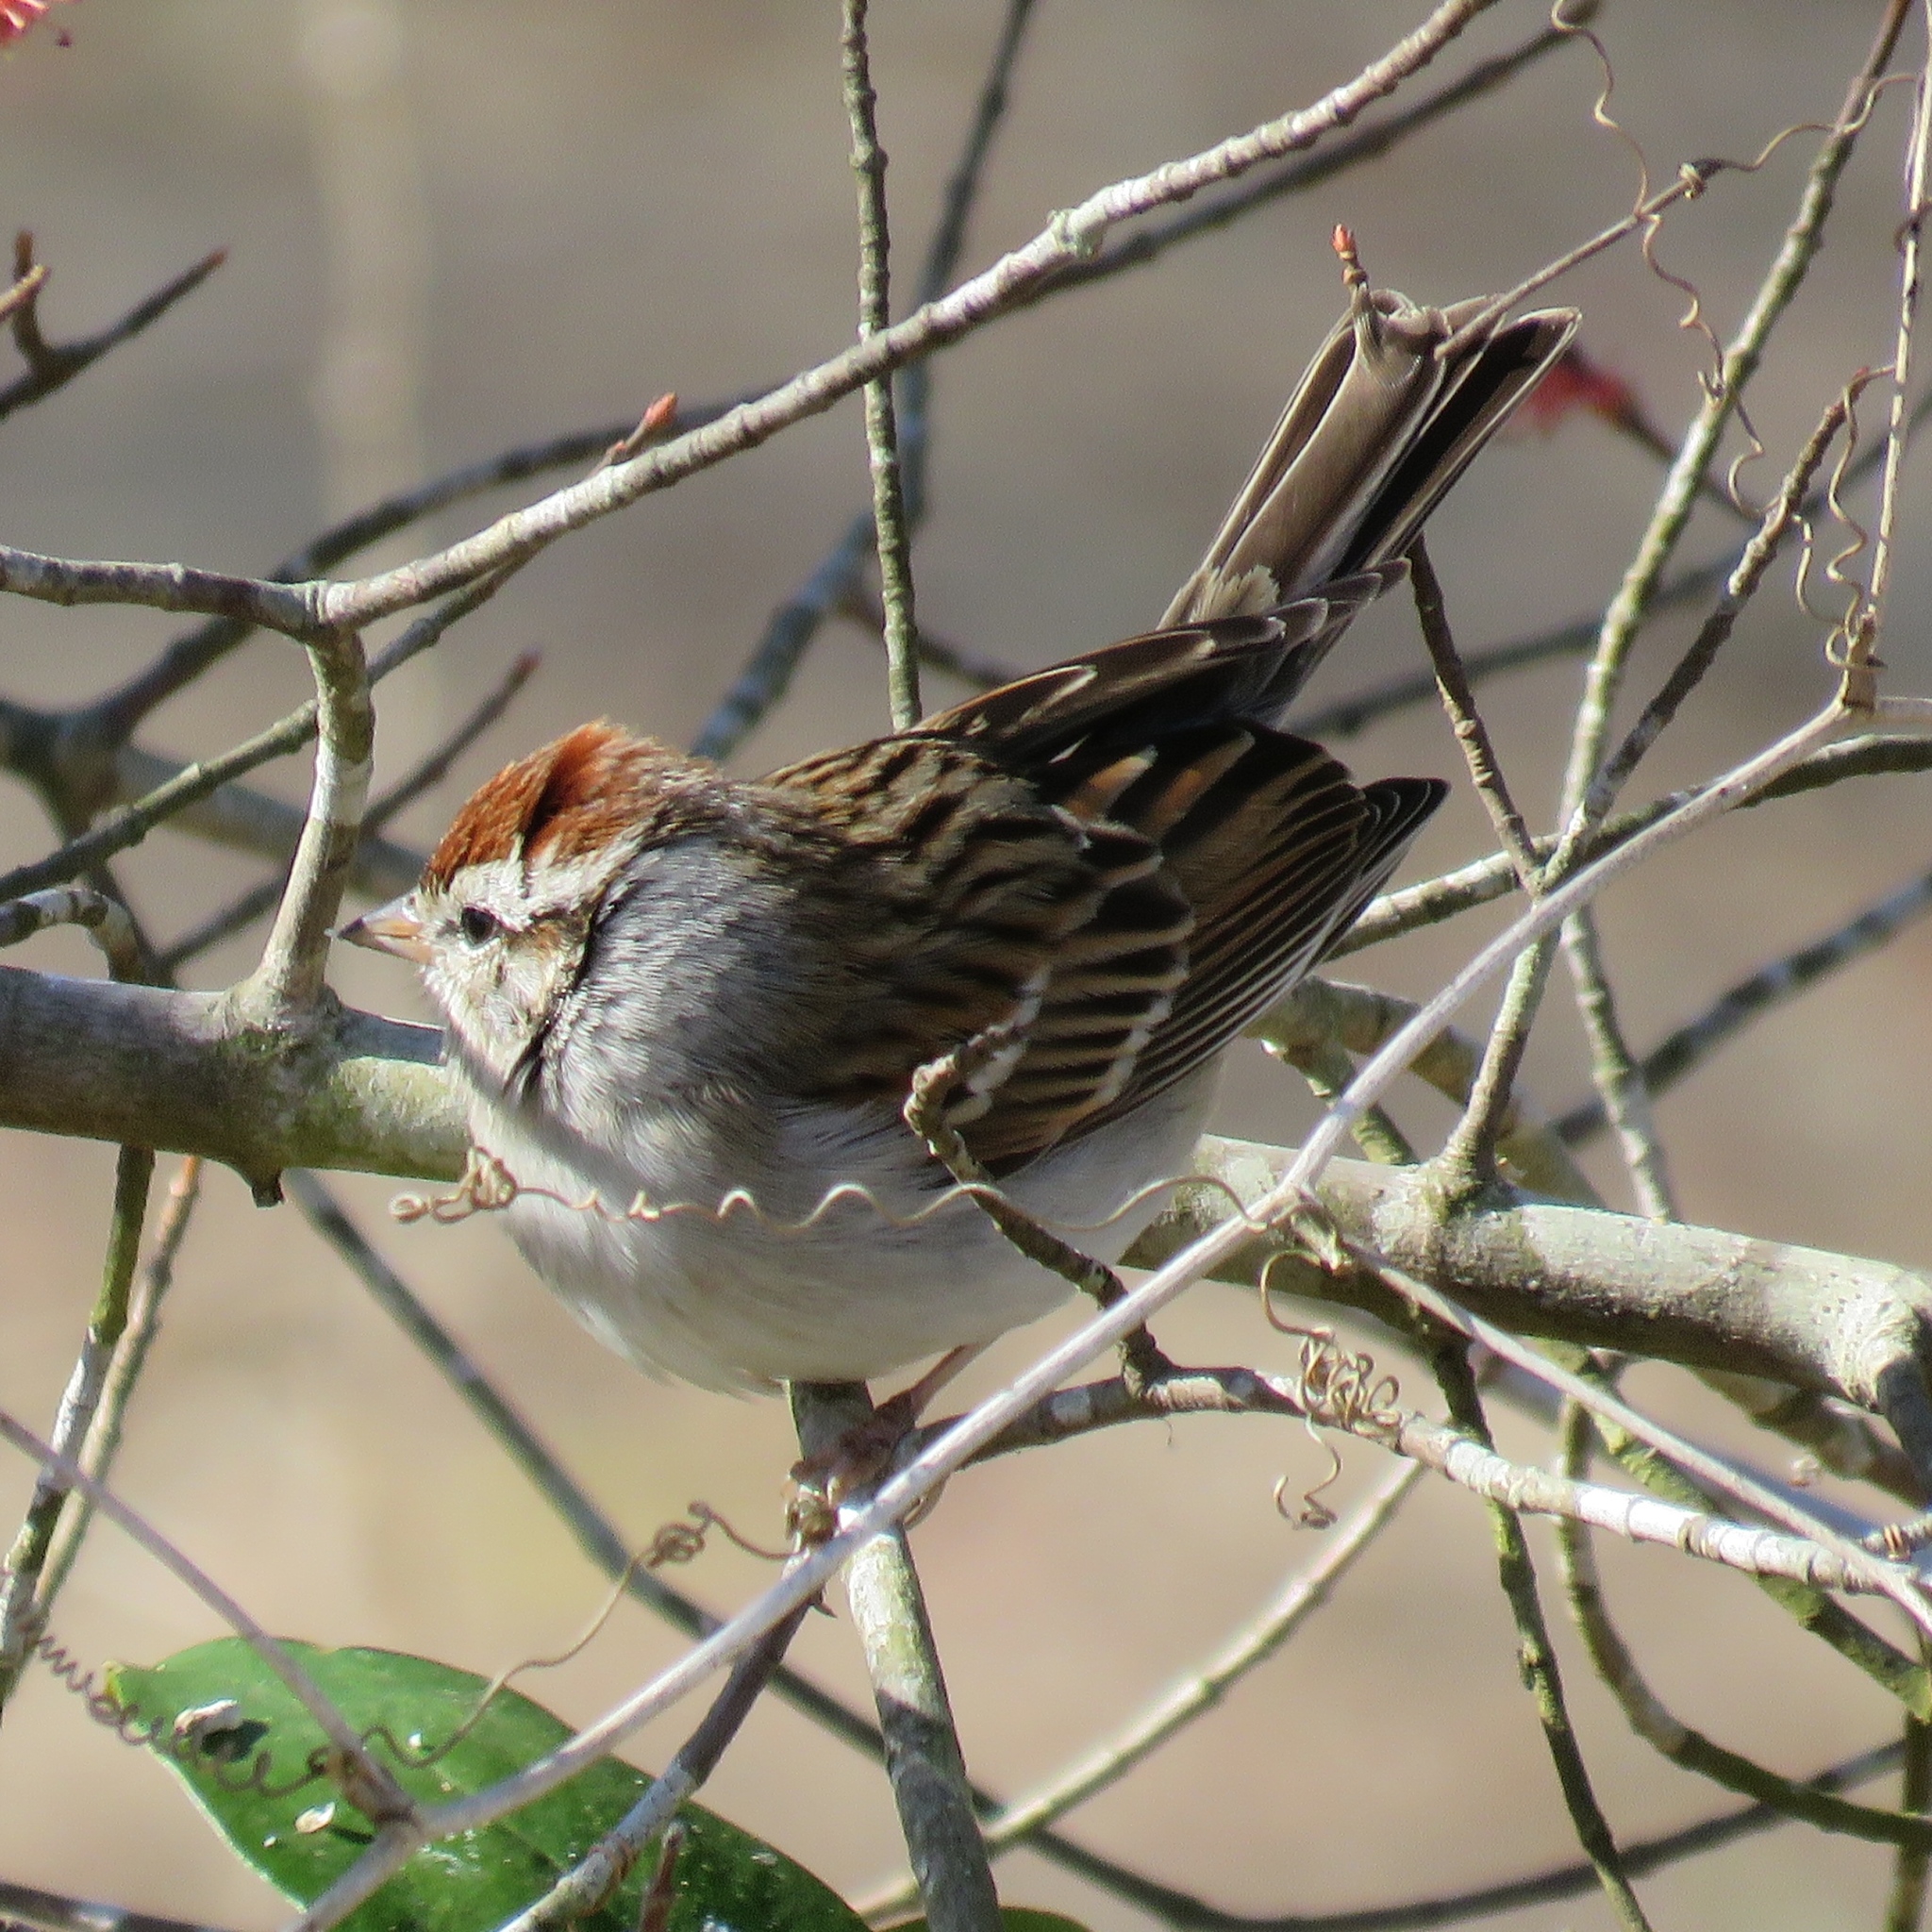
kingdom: Animalia
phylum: Chordata
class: Aves
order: Passeriformes
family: Passerellidae
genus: Spizella
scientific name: Spizella passerina
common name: Chipping sparrow
